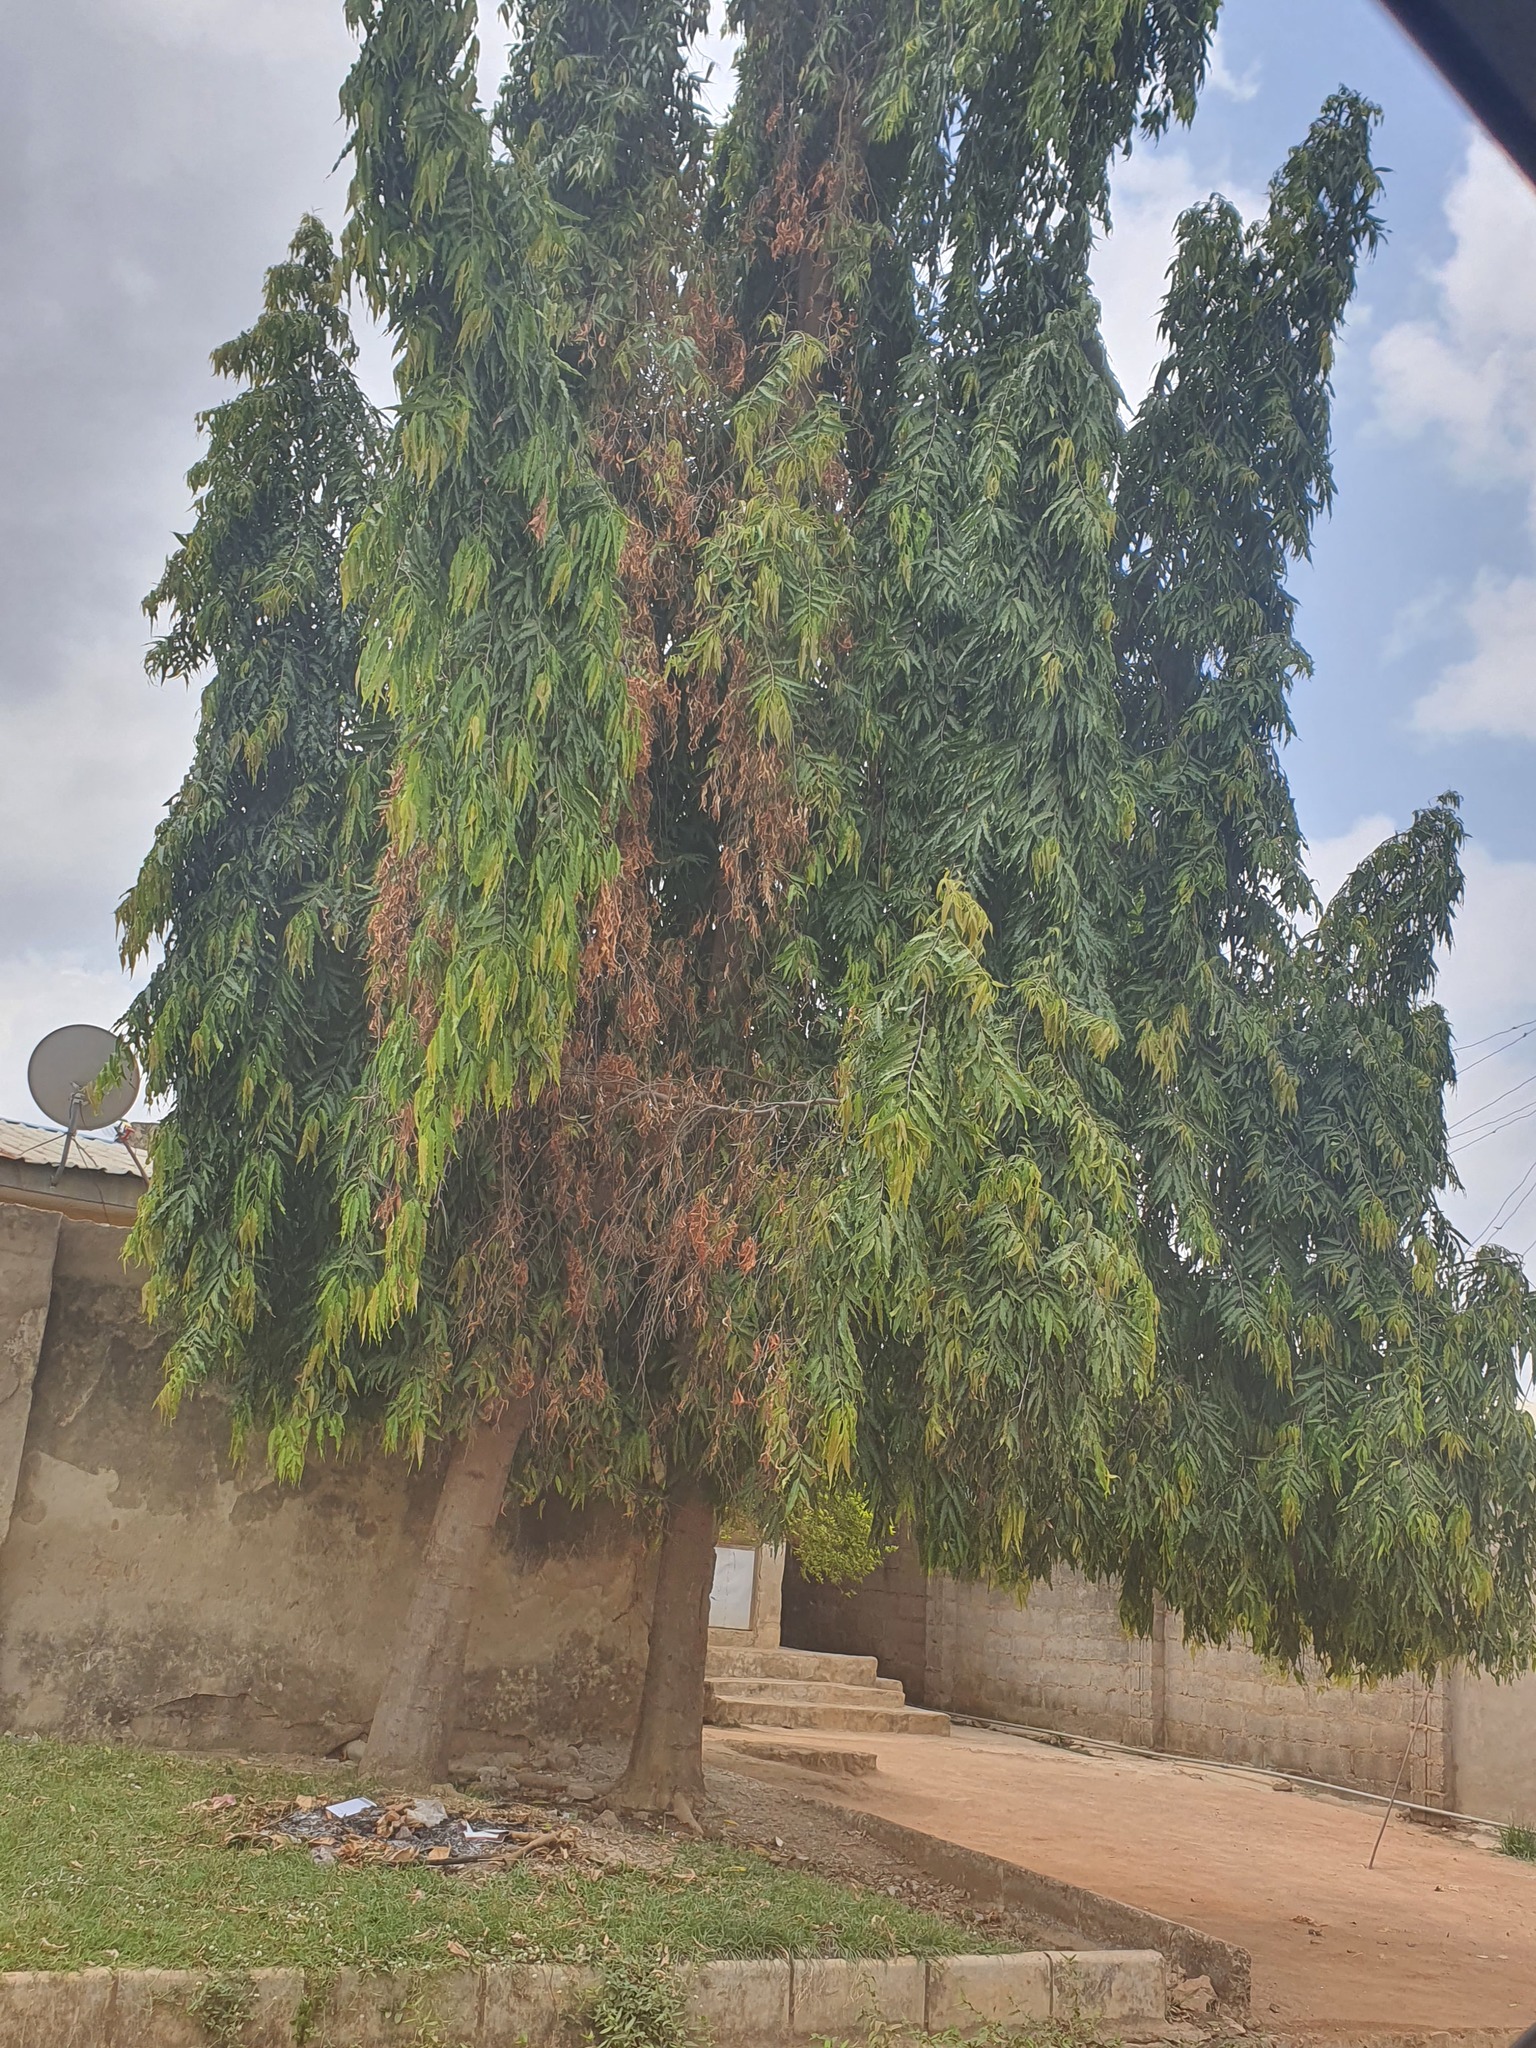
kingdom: Plantae
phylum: Tracheophyta
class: Magnoliopsida
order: Magnoliales
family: Annonaceae
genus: Polyalthia
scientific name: Polyalthia longifolia
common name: Cemetery-tree
